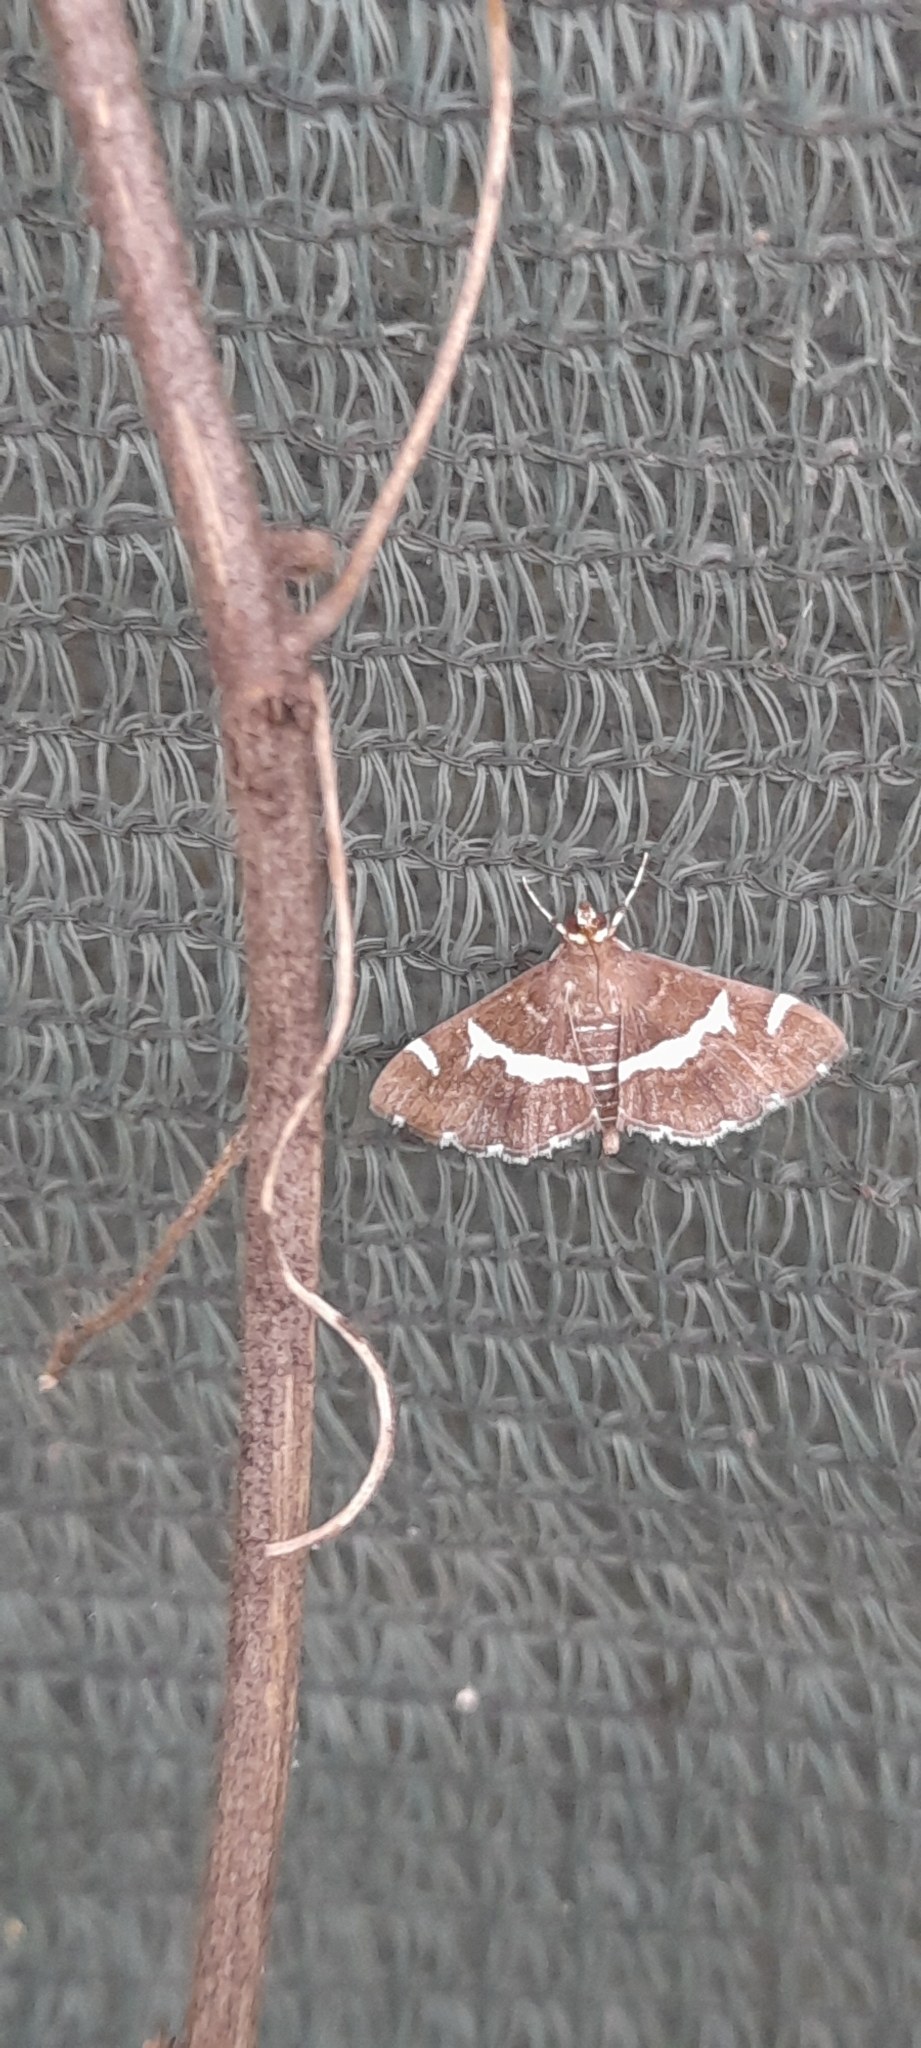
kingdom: Animalia
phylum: Arthropoda
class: Insecta
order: Lepidoptera
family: Crambidae
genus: Spoladea
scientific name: Spoladea recurvalis
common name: Beet webworm moth
